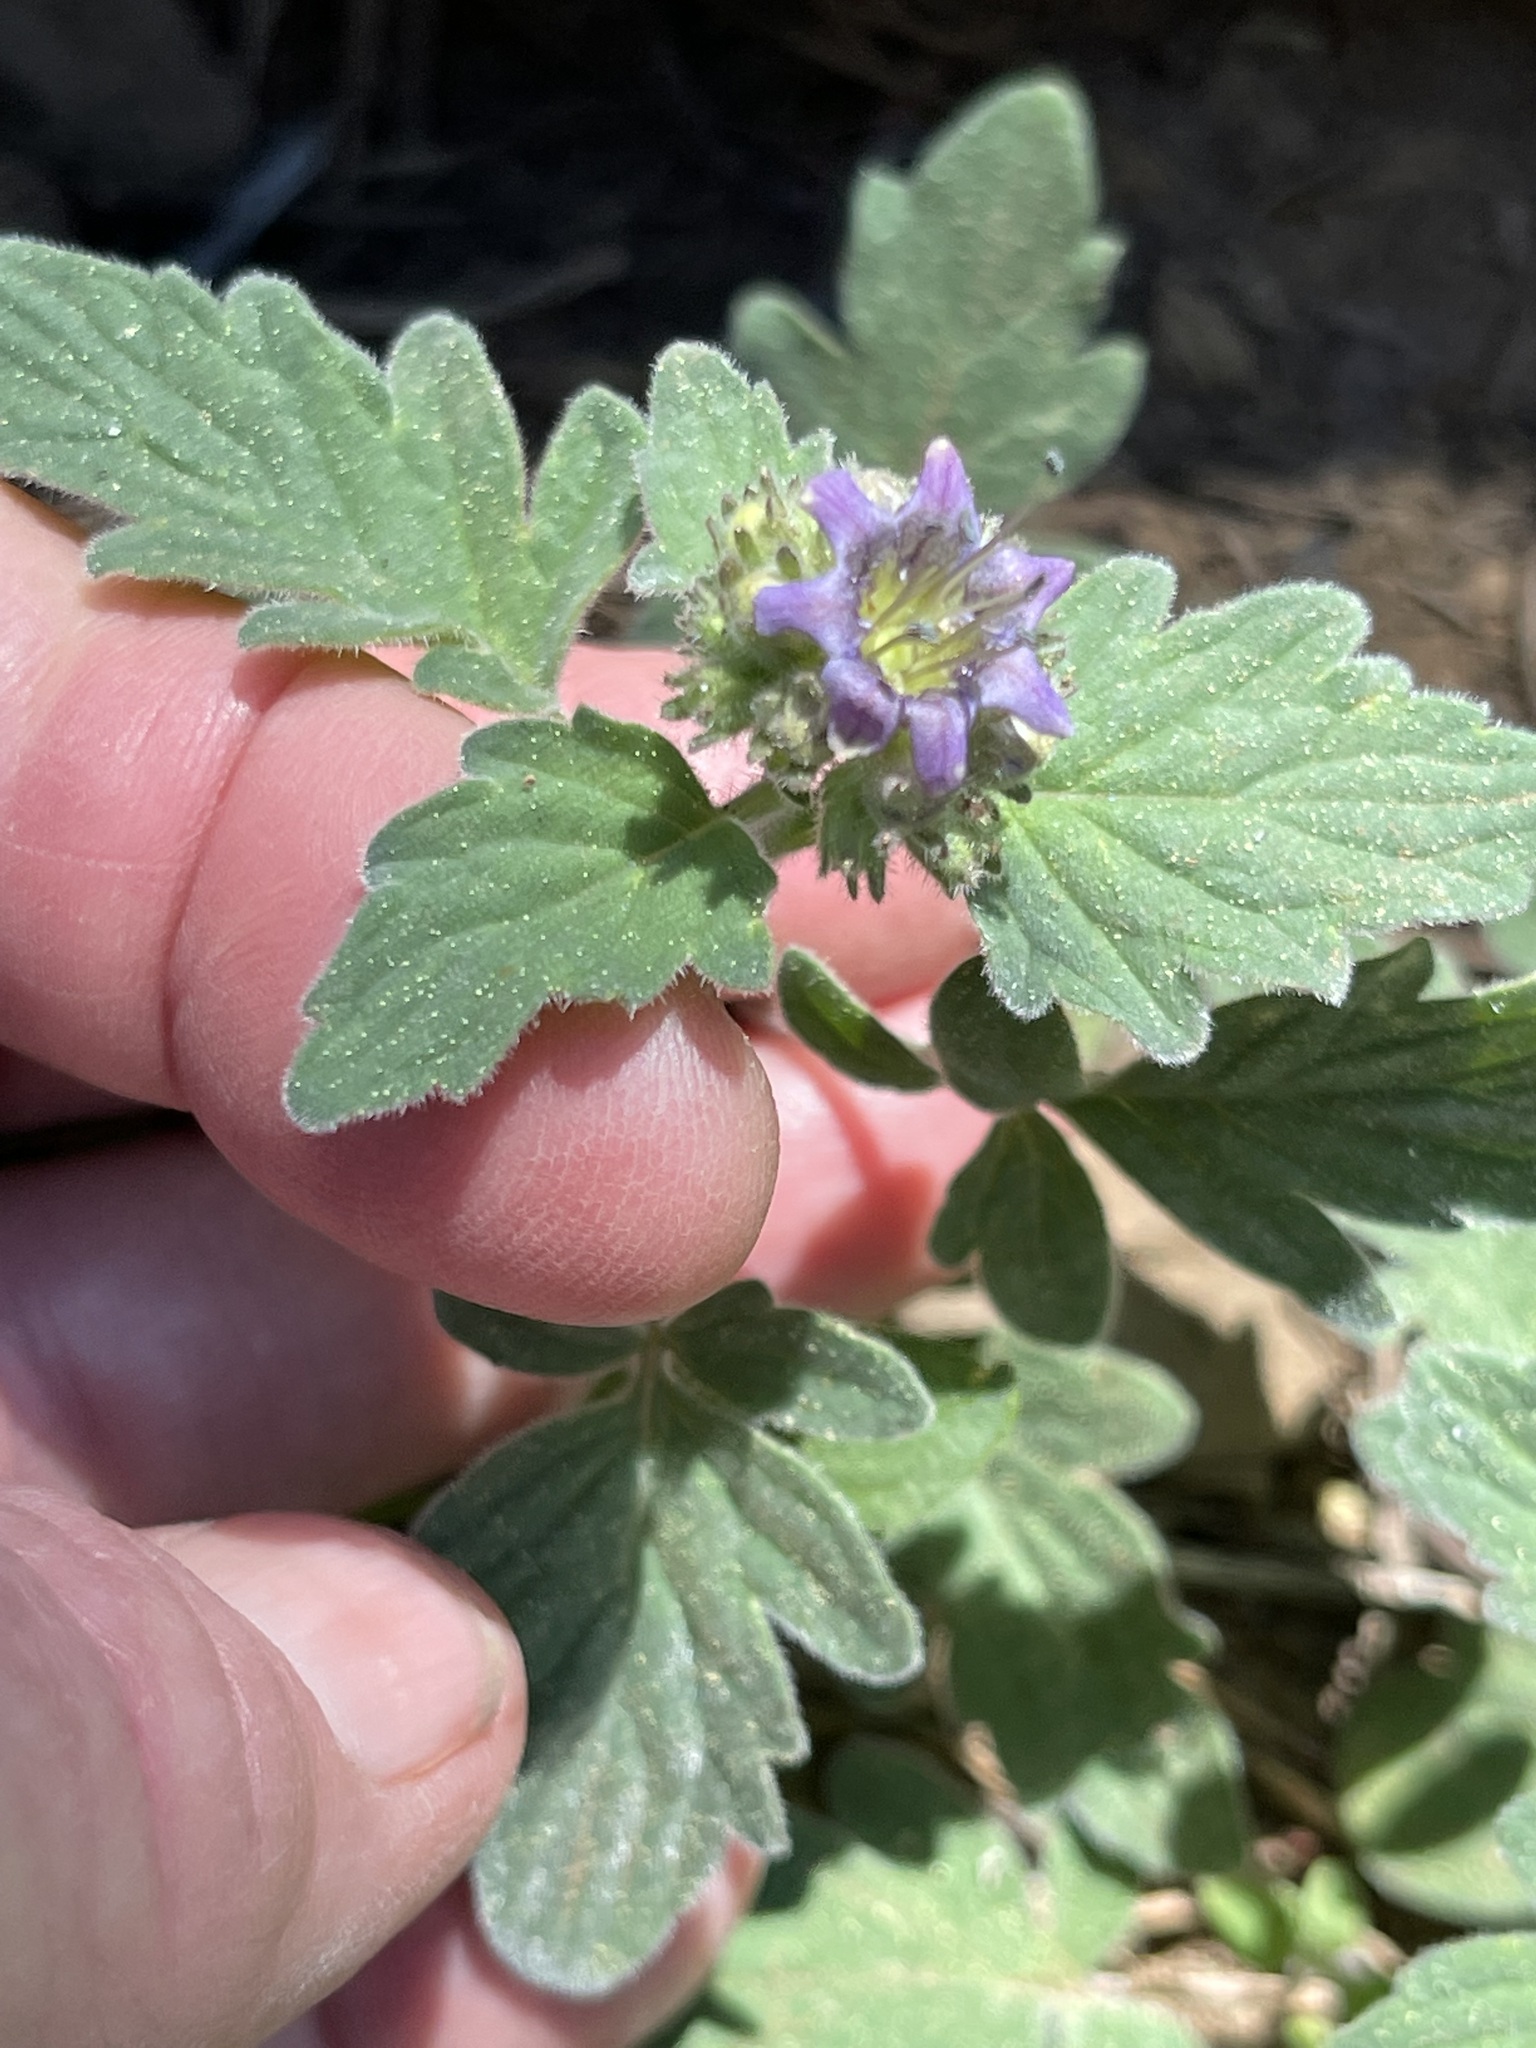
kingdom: Plantae
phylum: Tracheophyta
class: Magnoliopsida
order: Boraginales
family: Hydrophyllaceae
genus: Phacelia
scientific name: Phacelia hydrophylloides
